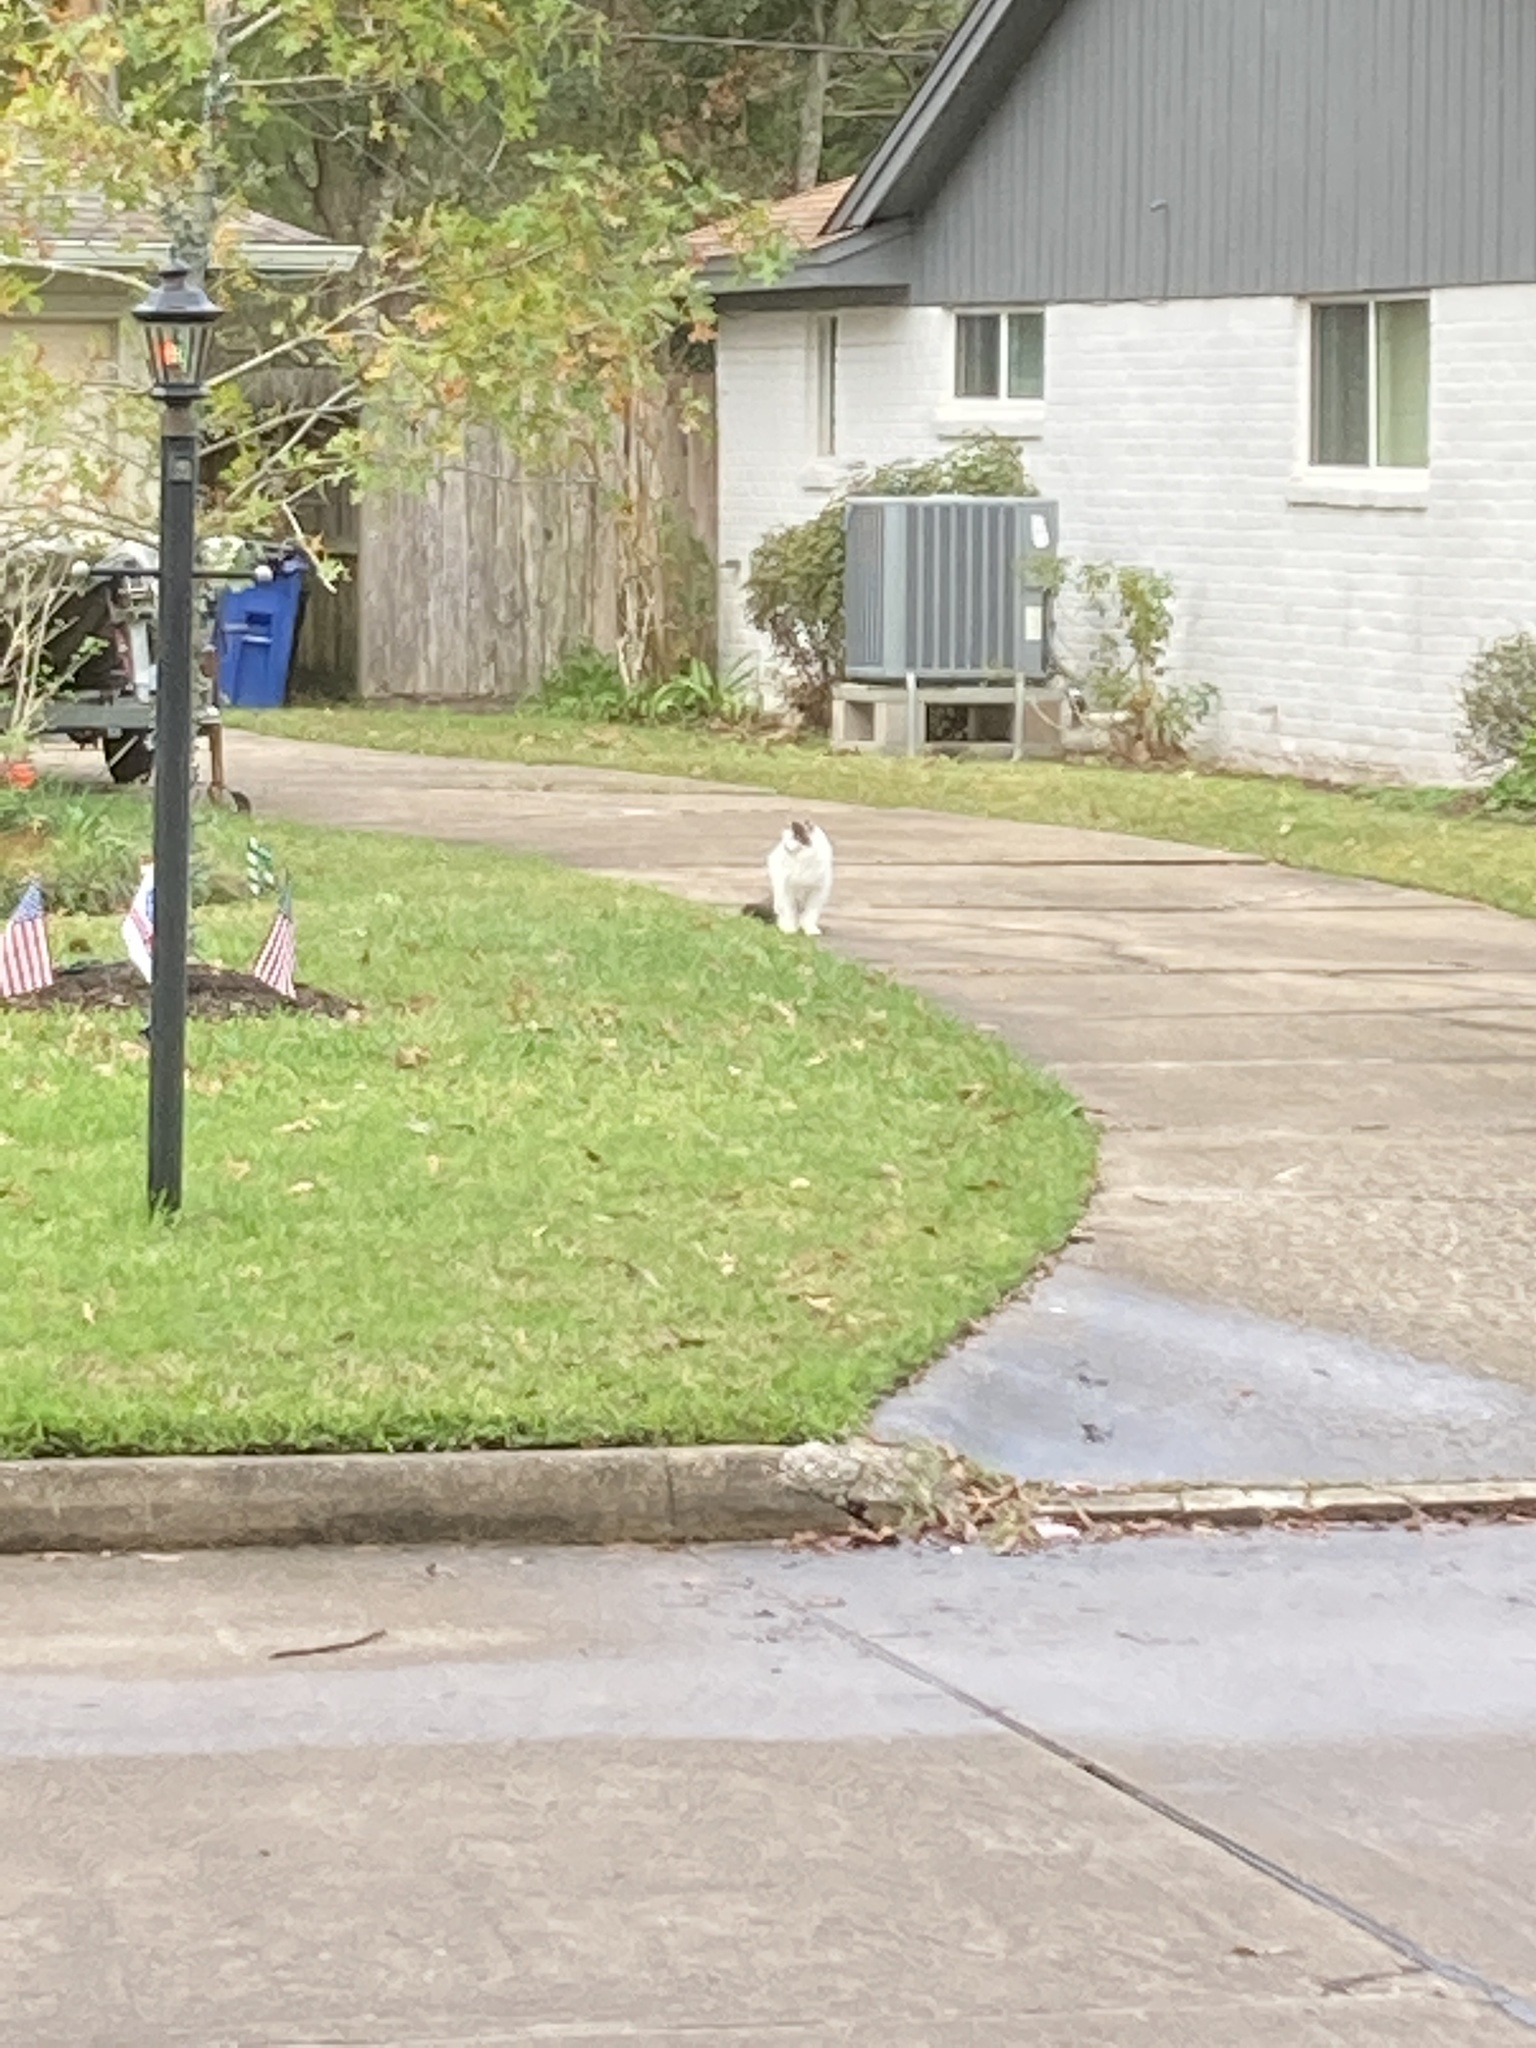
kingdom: Animalia
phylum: Chordata
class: Mammalia
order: Carnivora
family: Felidae
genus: Felis
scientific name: Felis catus
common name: Domestic cat
